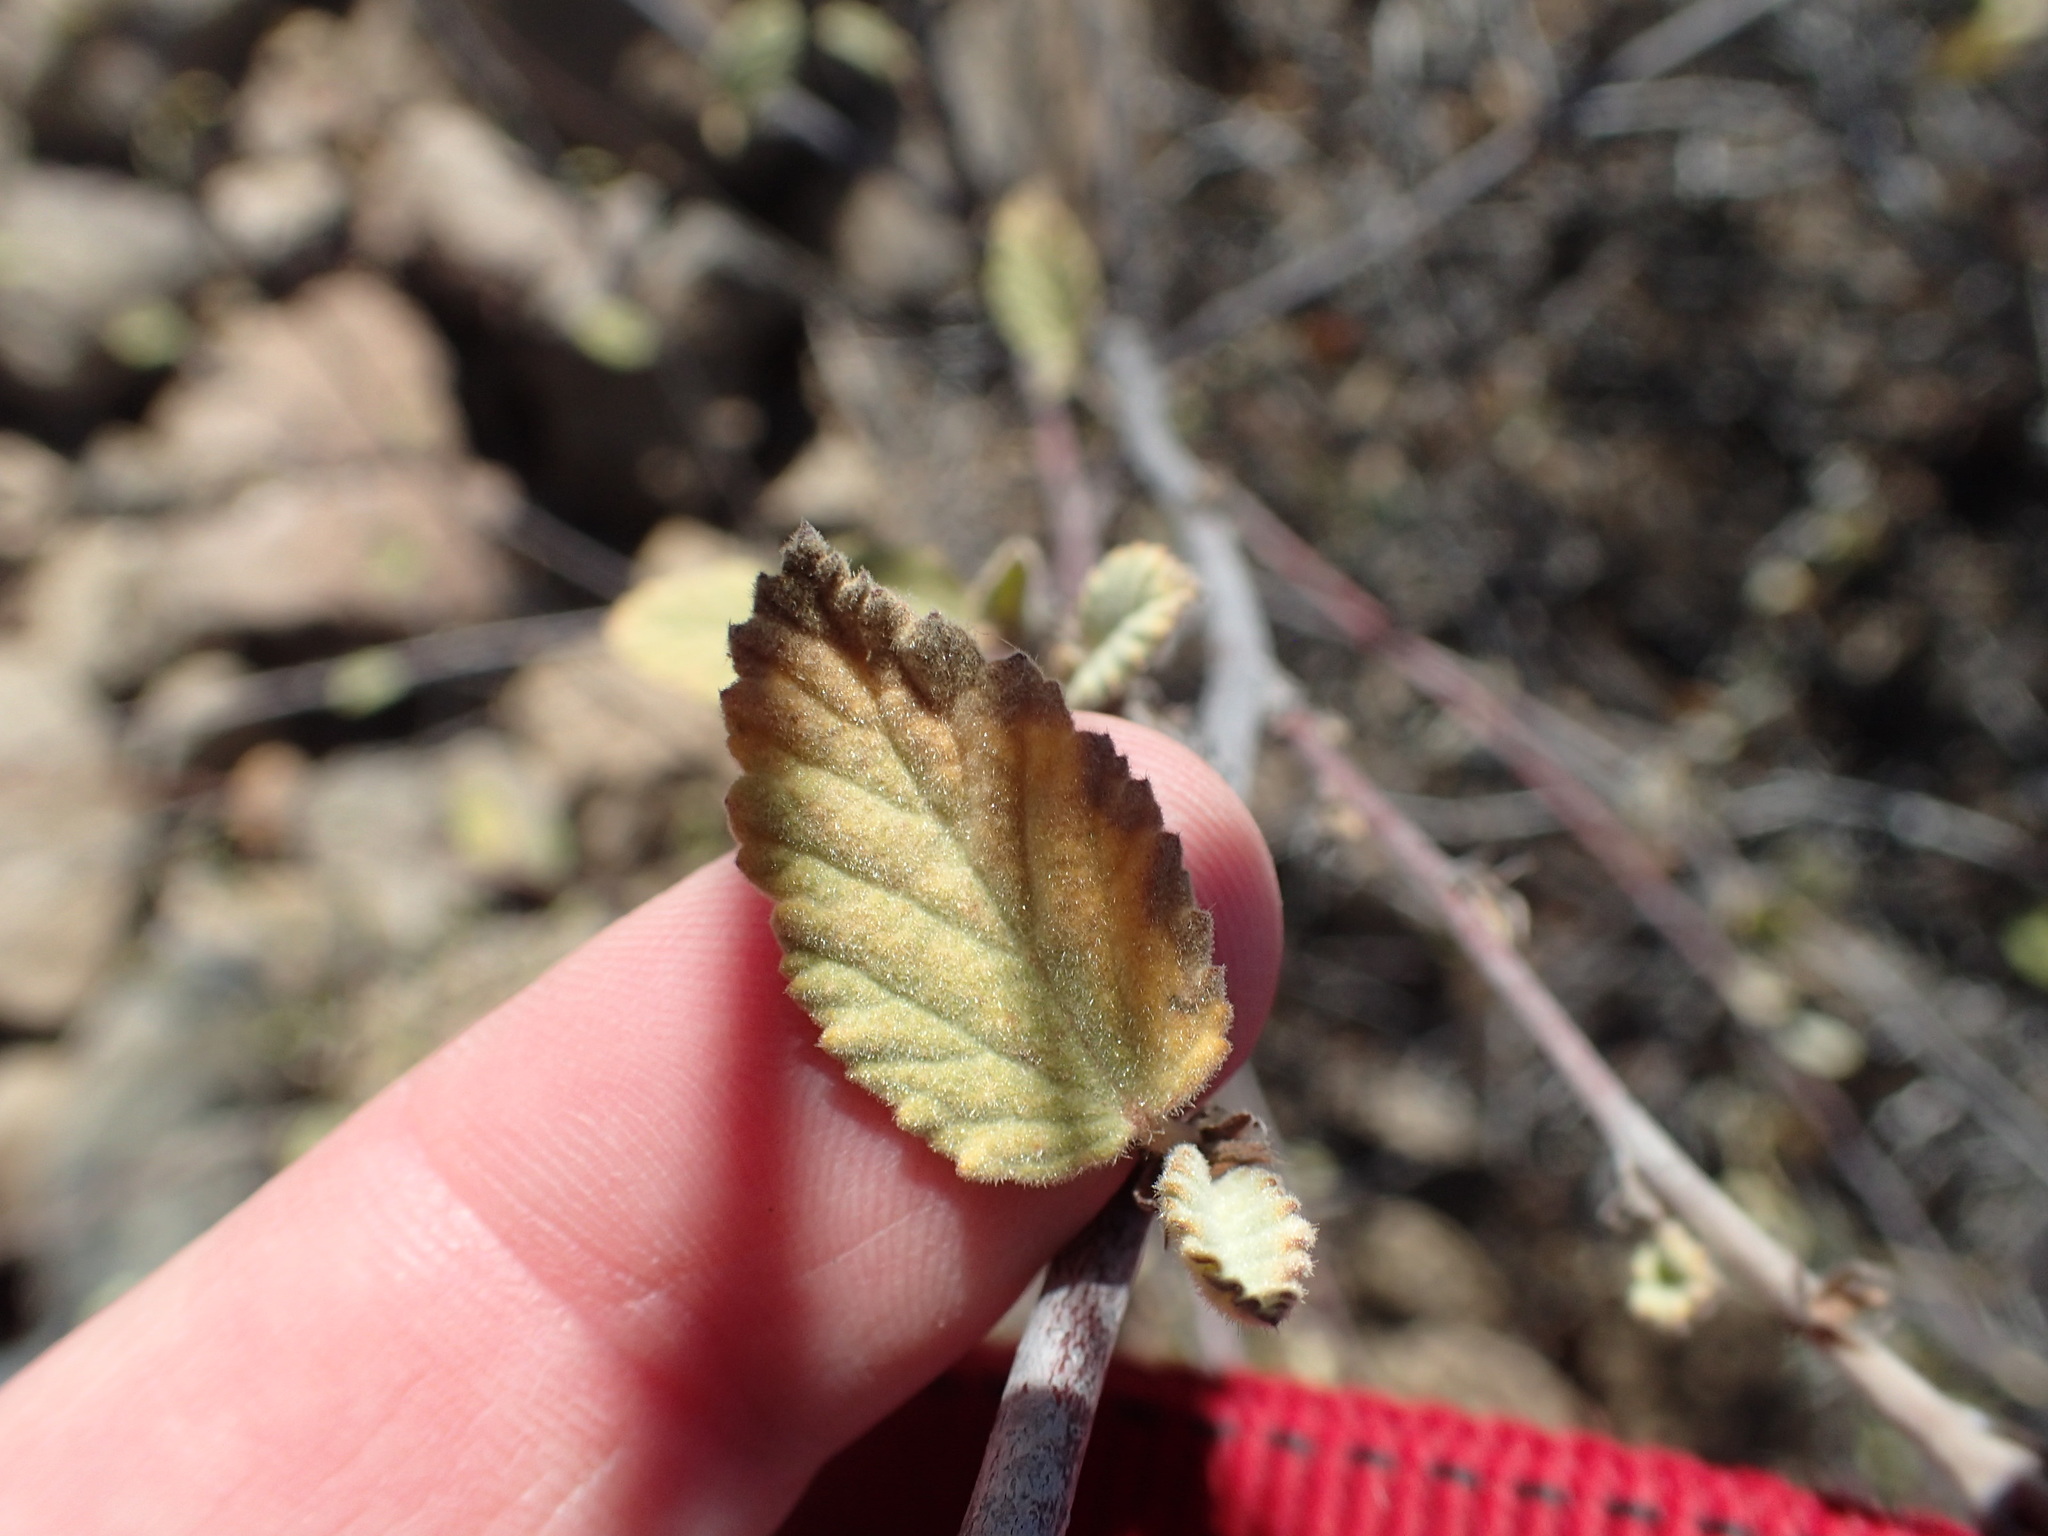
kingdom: Plantae
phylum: Tracheophyta
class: Magnoliopsida
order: Malvales
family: Malvaceae
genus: Melochia
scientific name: Melochia tomentosa
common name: Black torch
